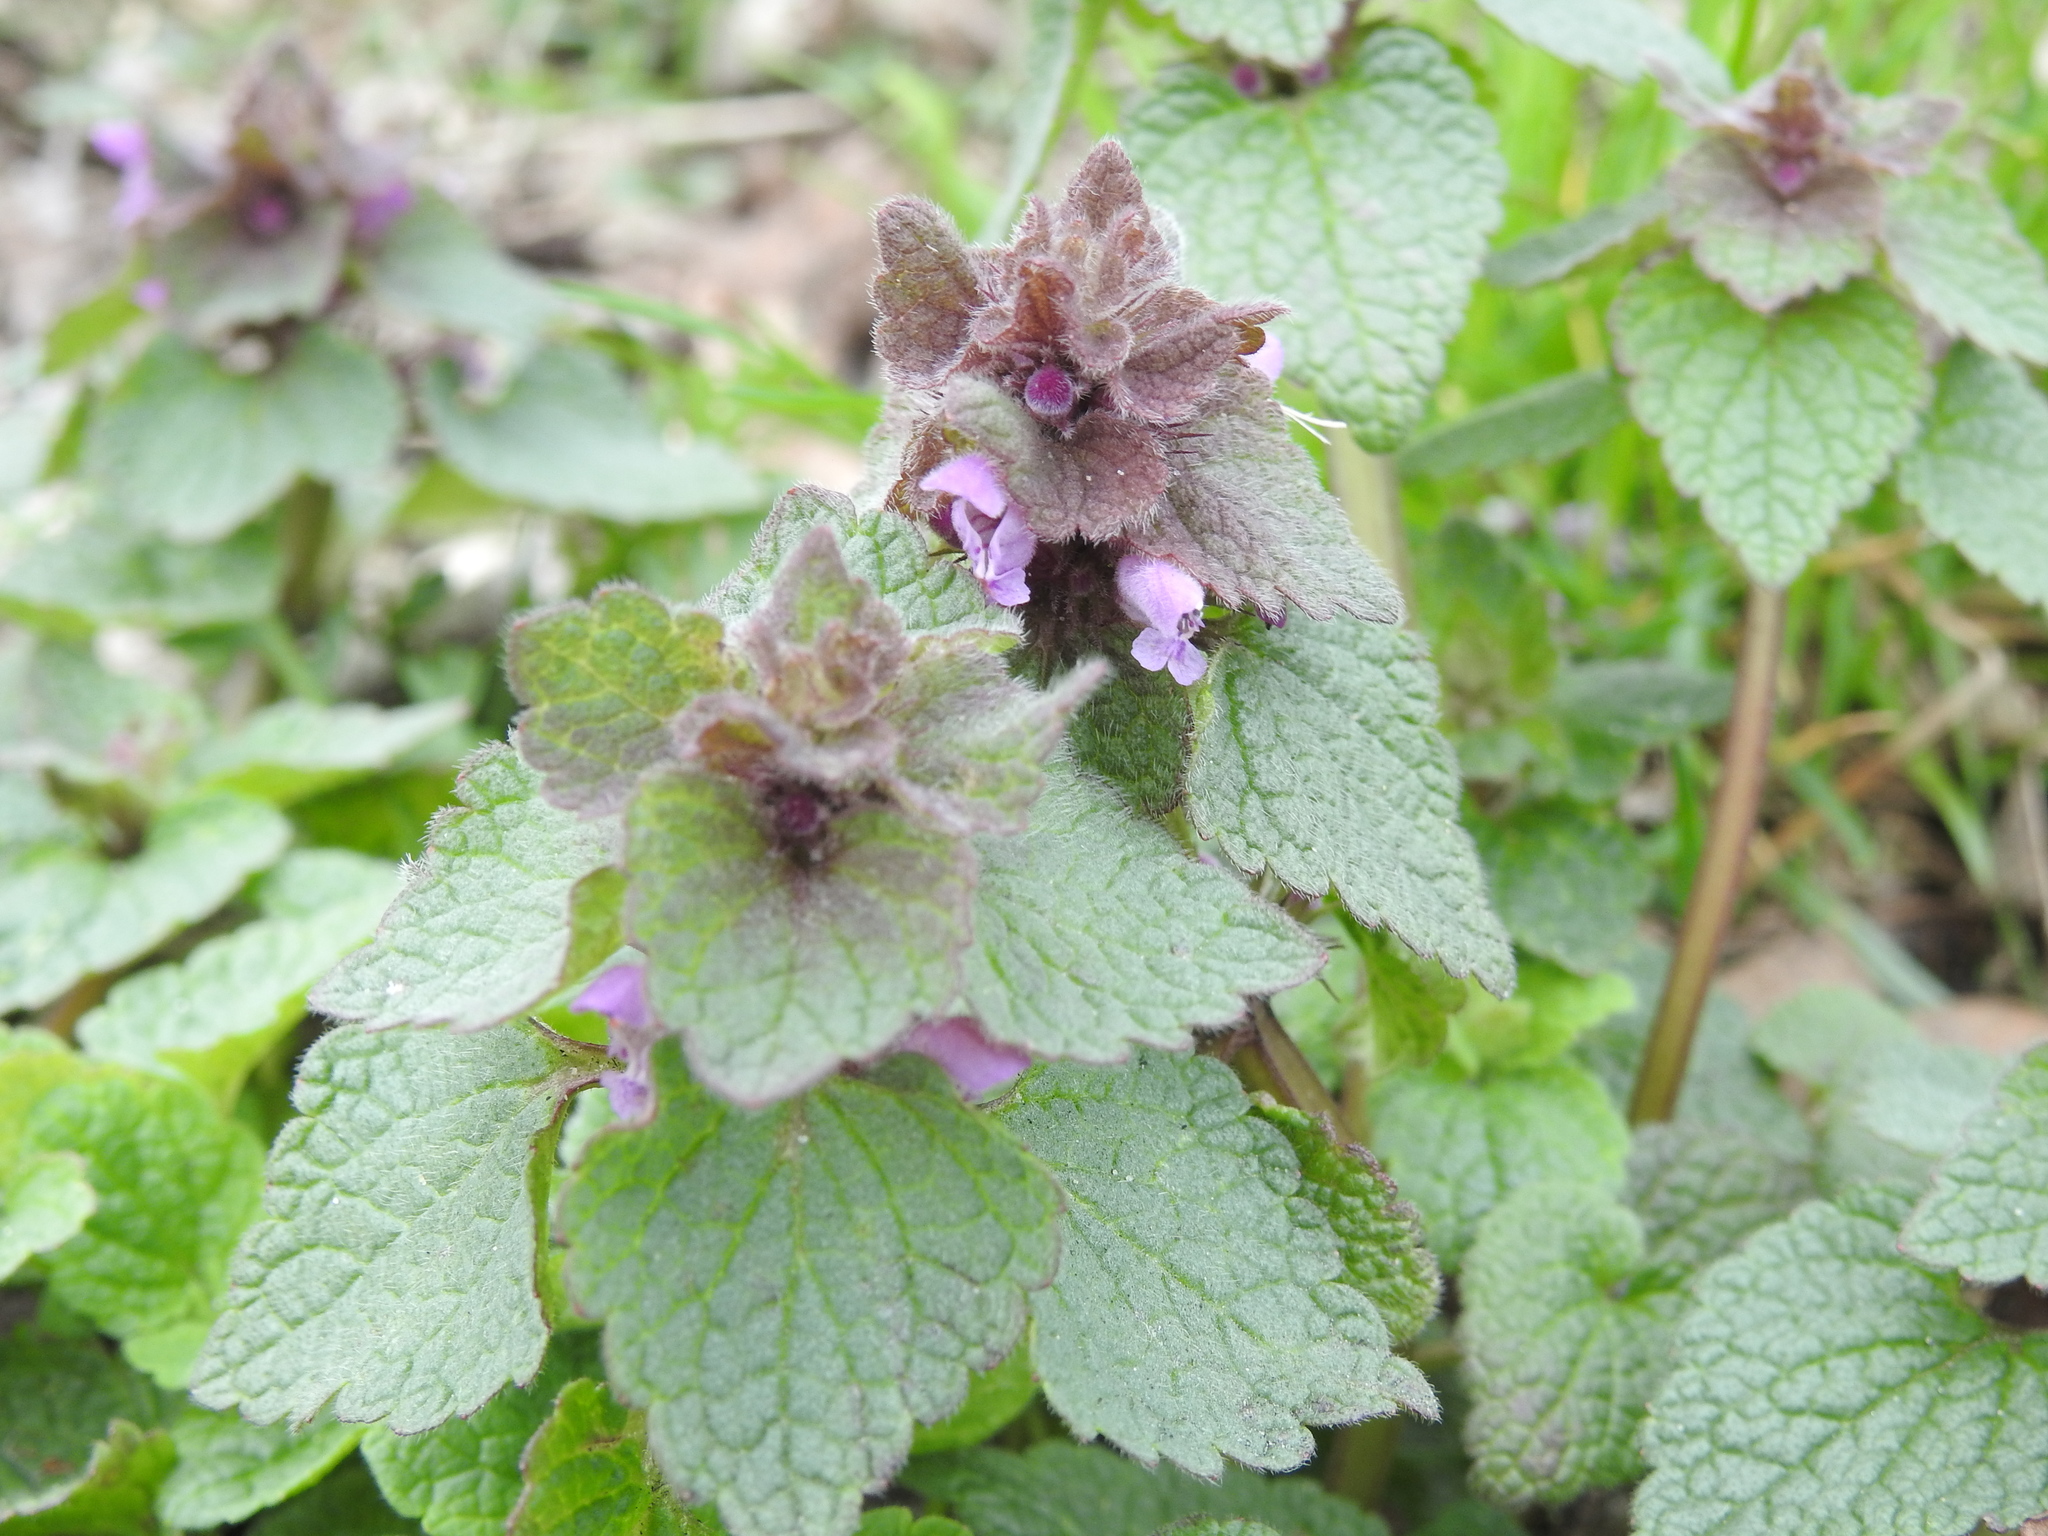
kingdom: Plantae
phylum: Tracheophyta
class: Magnoliopsida
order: Lamiales
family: Lamiaceae
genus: Lamium
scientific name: Lamium purpureum
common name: Red dead-nettle
